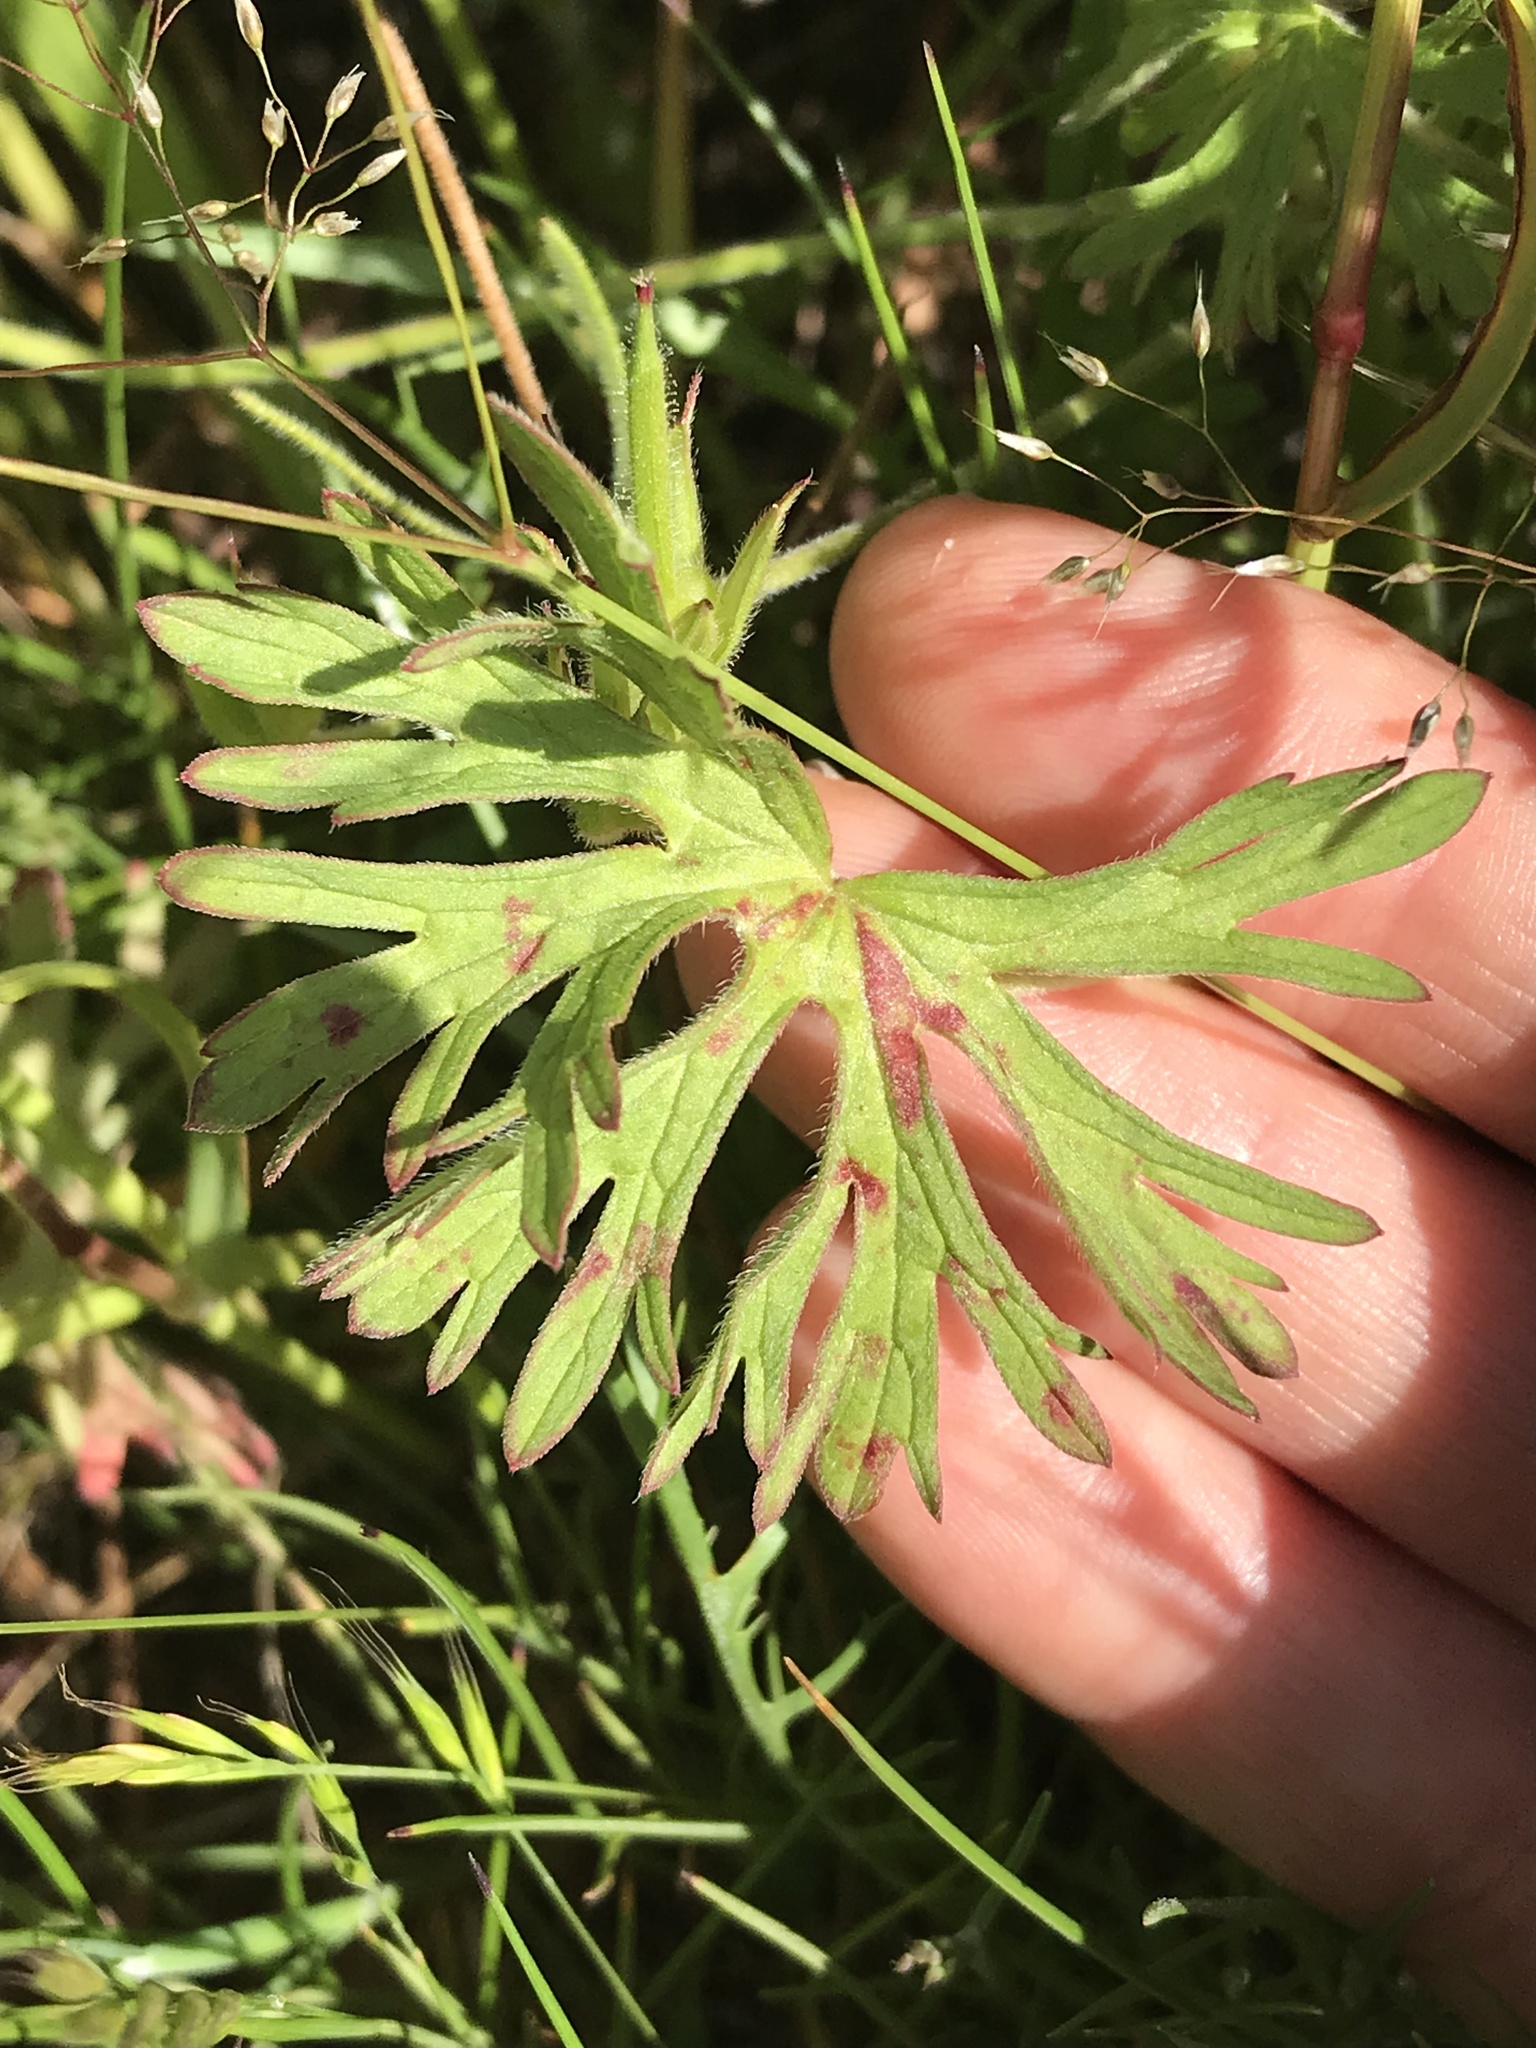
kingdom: Plantae
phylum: Tracheophyta
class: Magnoliopsida
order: Geraniales
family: Geraniaceae
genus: Geranium
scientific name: Geranium dissectum
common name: Cut-leaved crane's-bill
